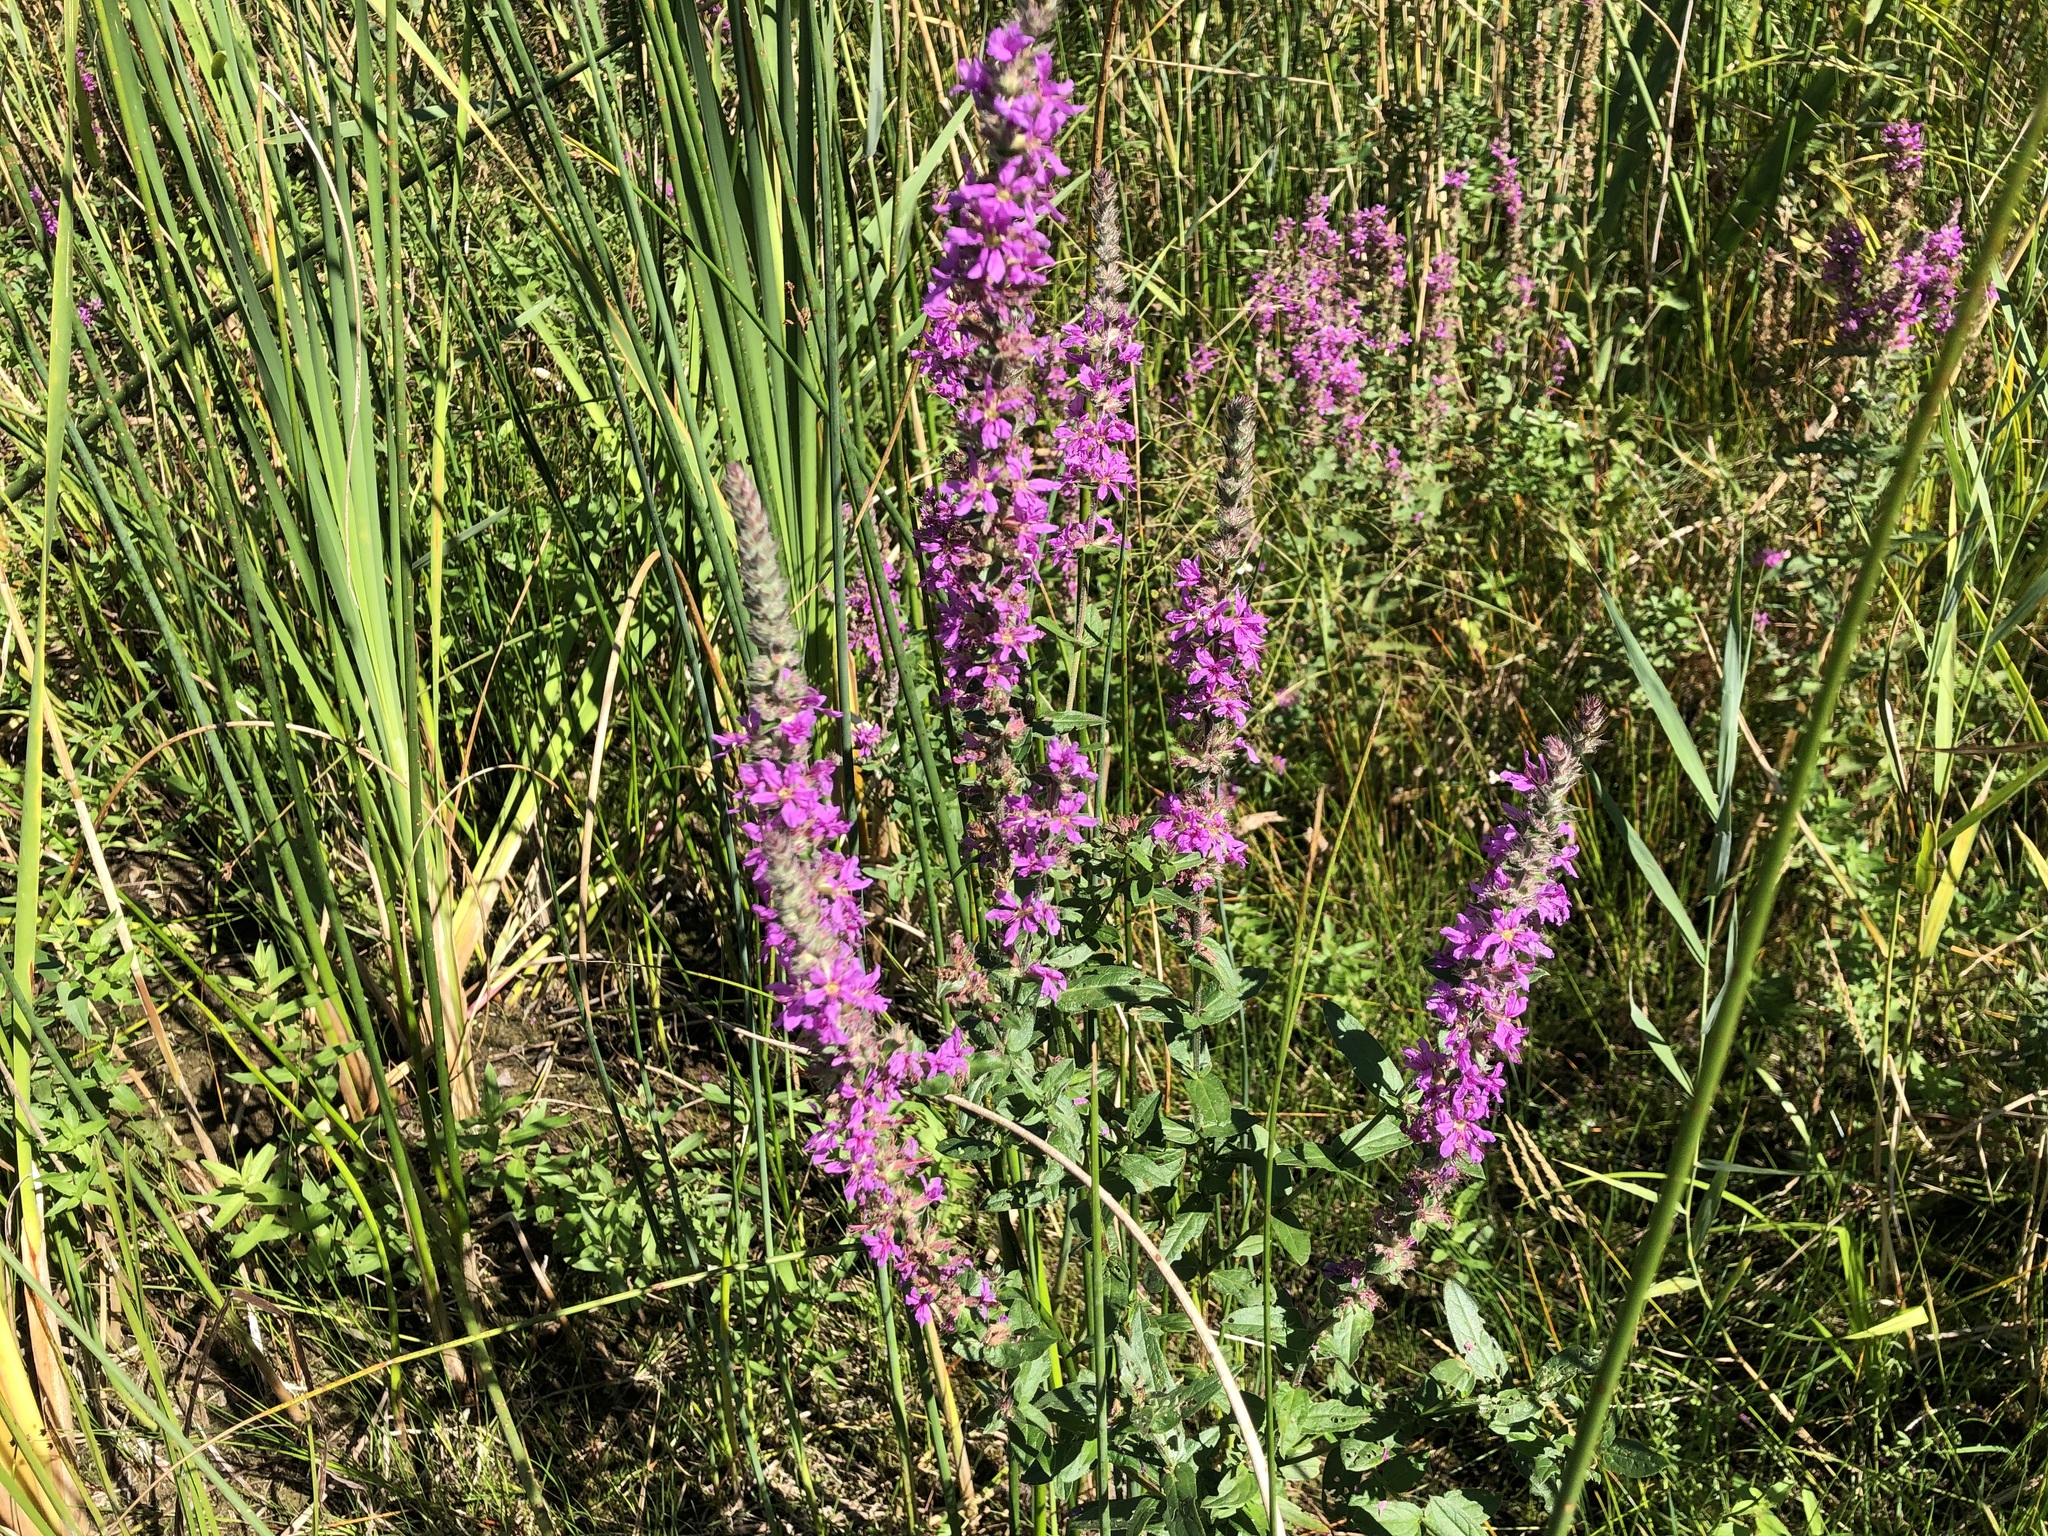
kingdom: Plantae
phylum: Tracheophyta
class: Magnoliopsida
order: Myrtales
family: Lythraceae
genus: Lythrum
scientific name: Lythrum salicaria
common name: Purple loosestrife
